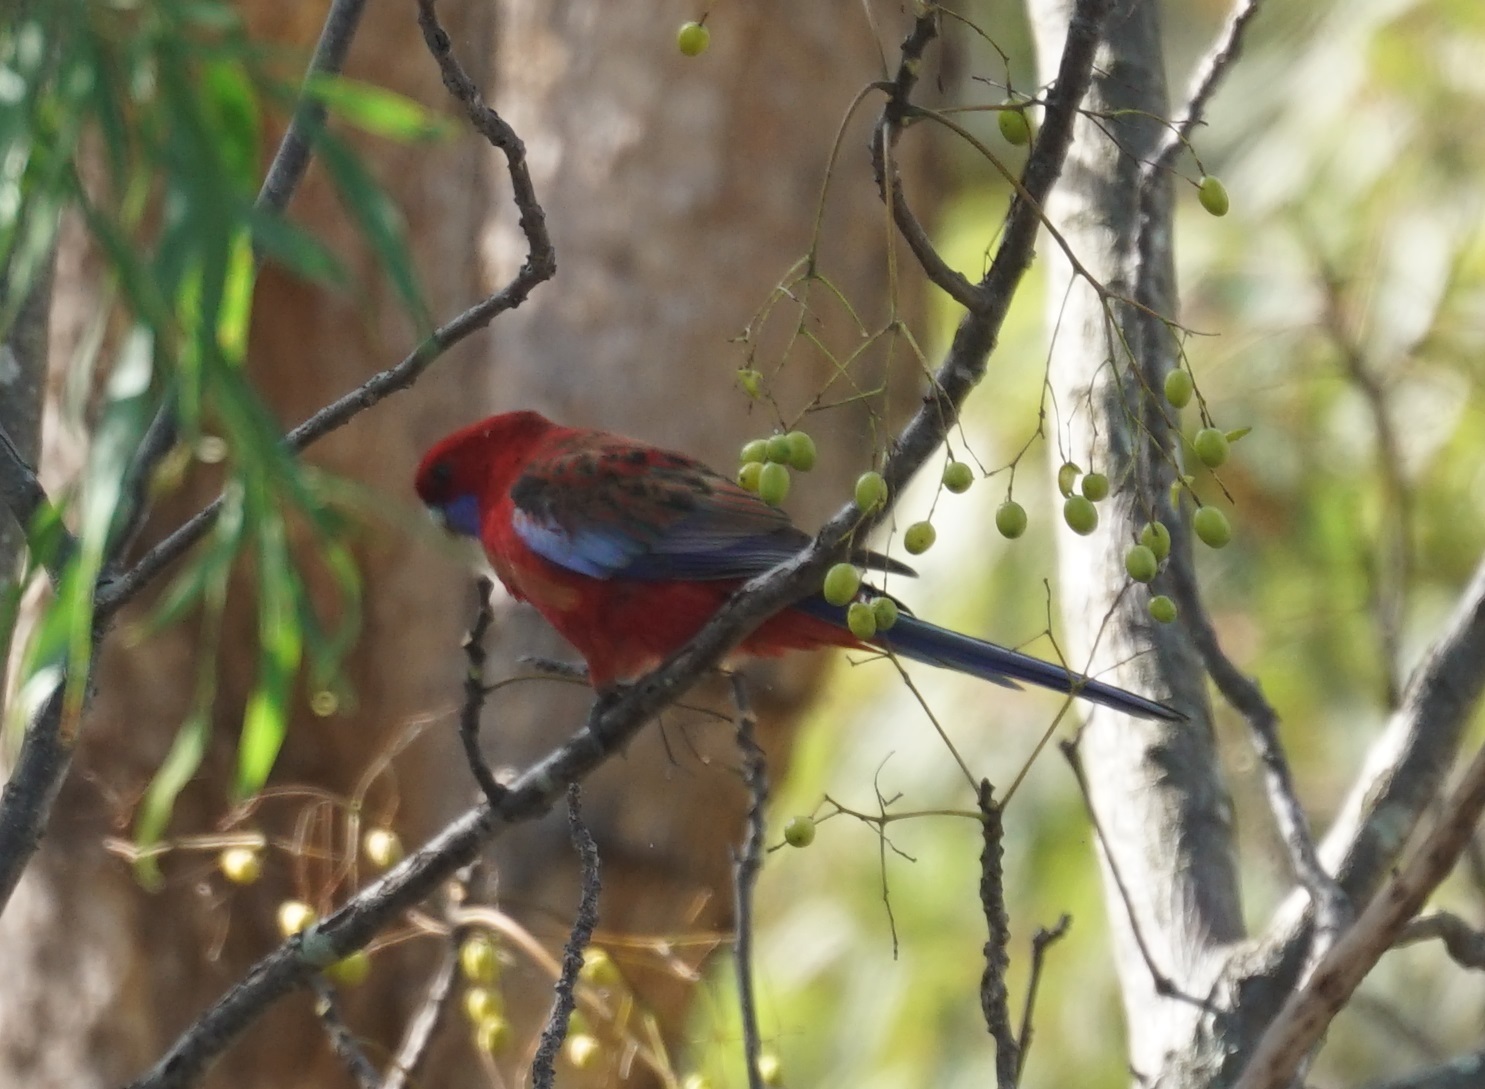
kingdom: Animalia
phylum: Chordata
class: Aves
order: Psittaciformes
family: Psittacidae
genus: Platycercus
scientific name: Platycercus elegans
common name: Crimson rosella
